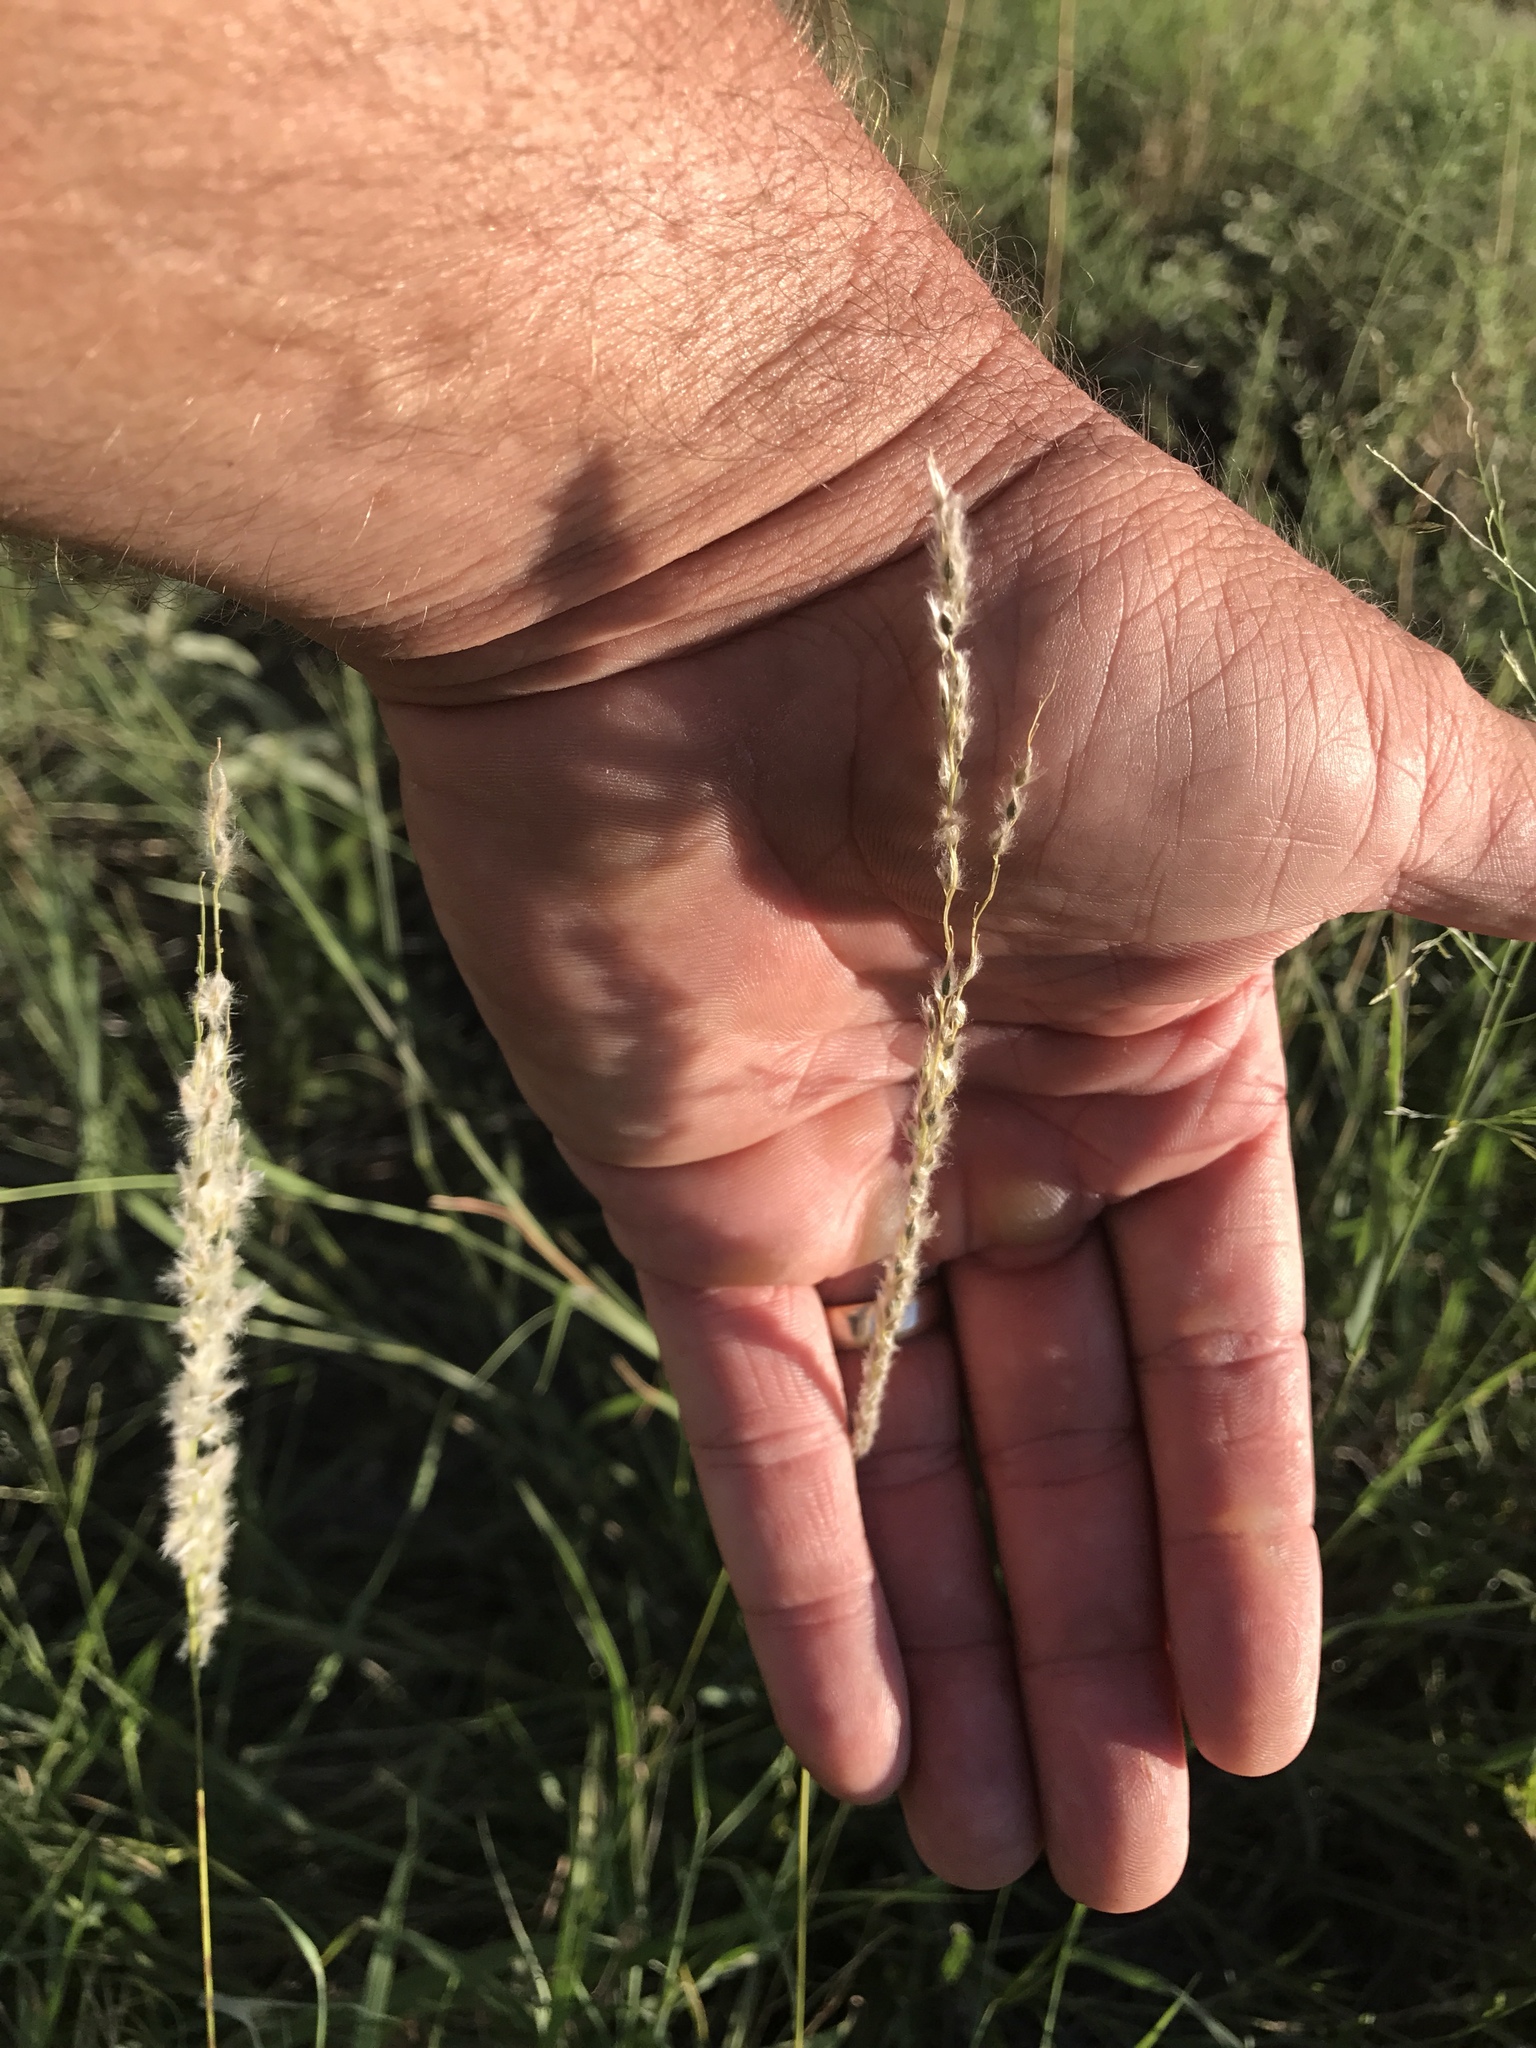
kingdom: Plantae
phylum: Tracheophyta
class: Liliopsida
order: Poales
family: Poaceae
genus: Digitaria
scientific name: Digitaria californica
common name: Arizona cottontop
